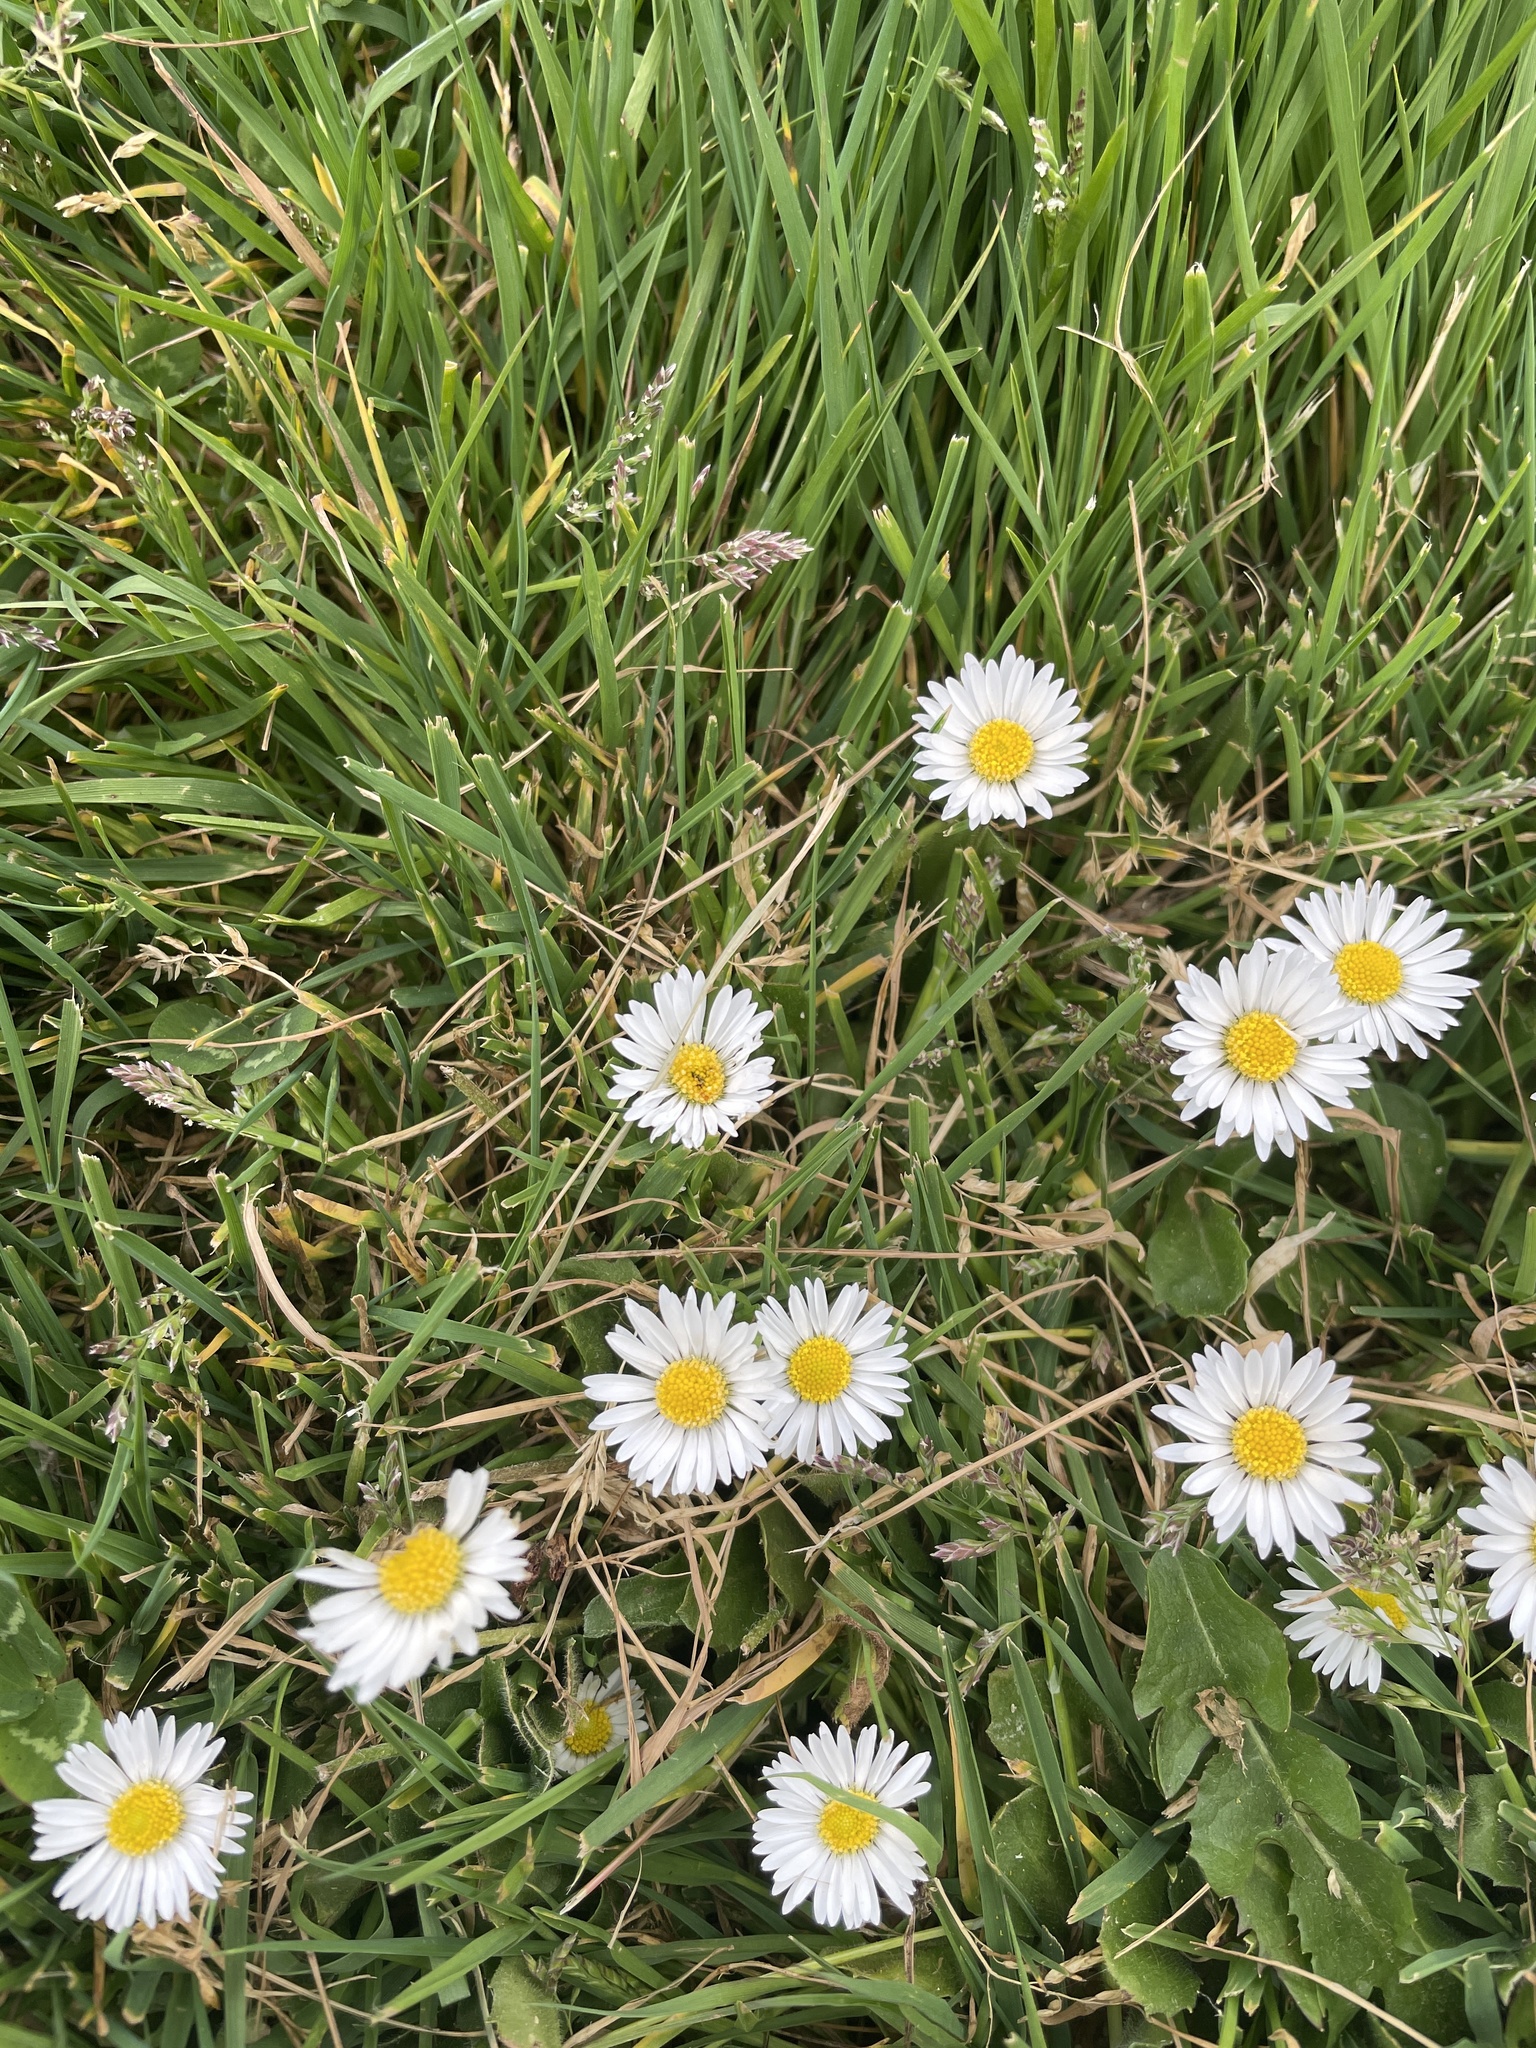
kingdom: Plantae
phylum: Tracheophyta
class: Magnoliopsida
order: Asterales
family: Asteraceae
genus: Bellis
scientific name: Bellis perennis
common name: Lawndaisy
